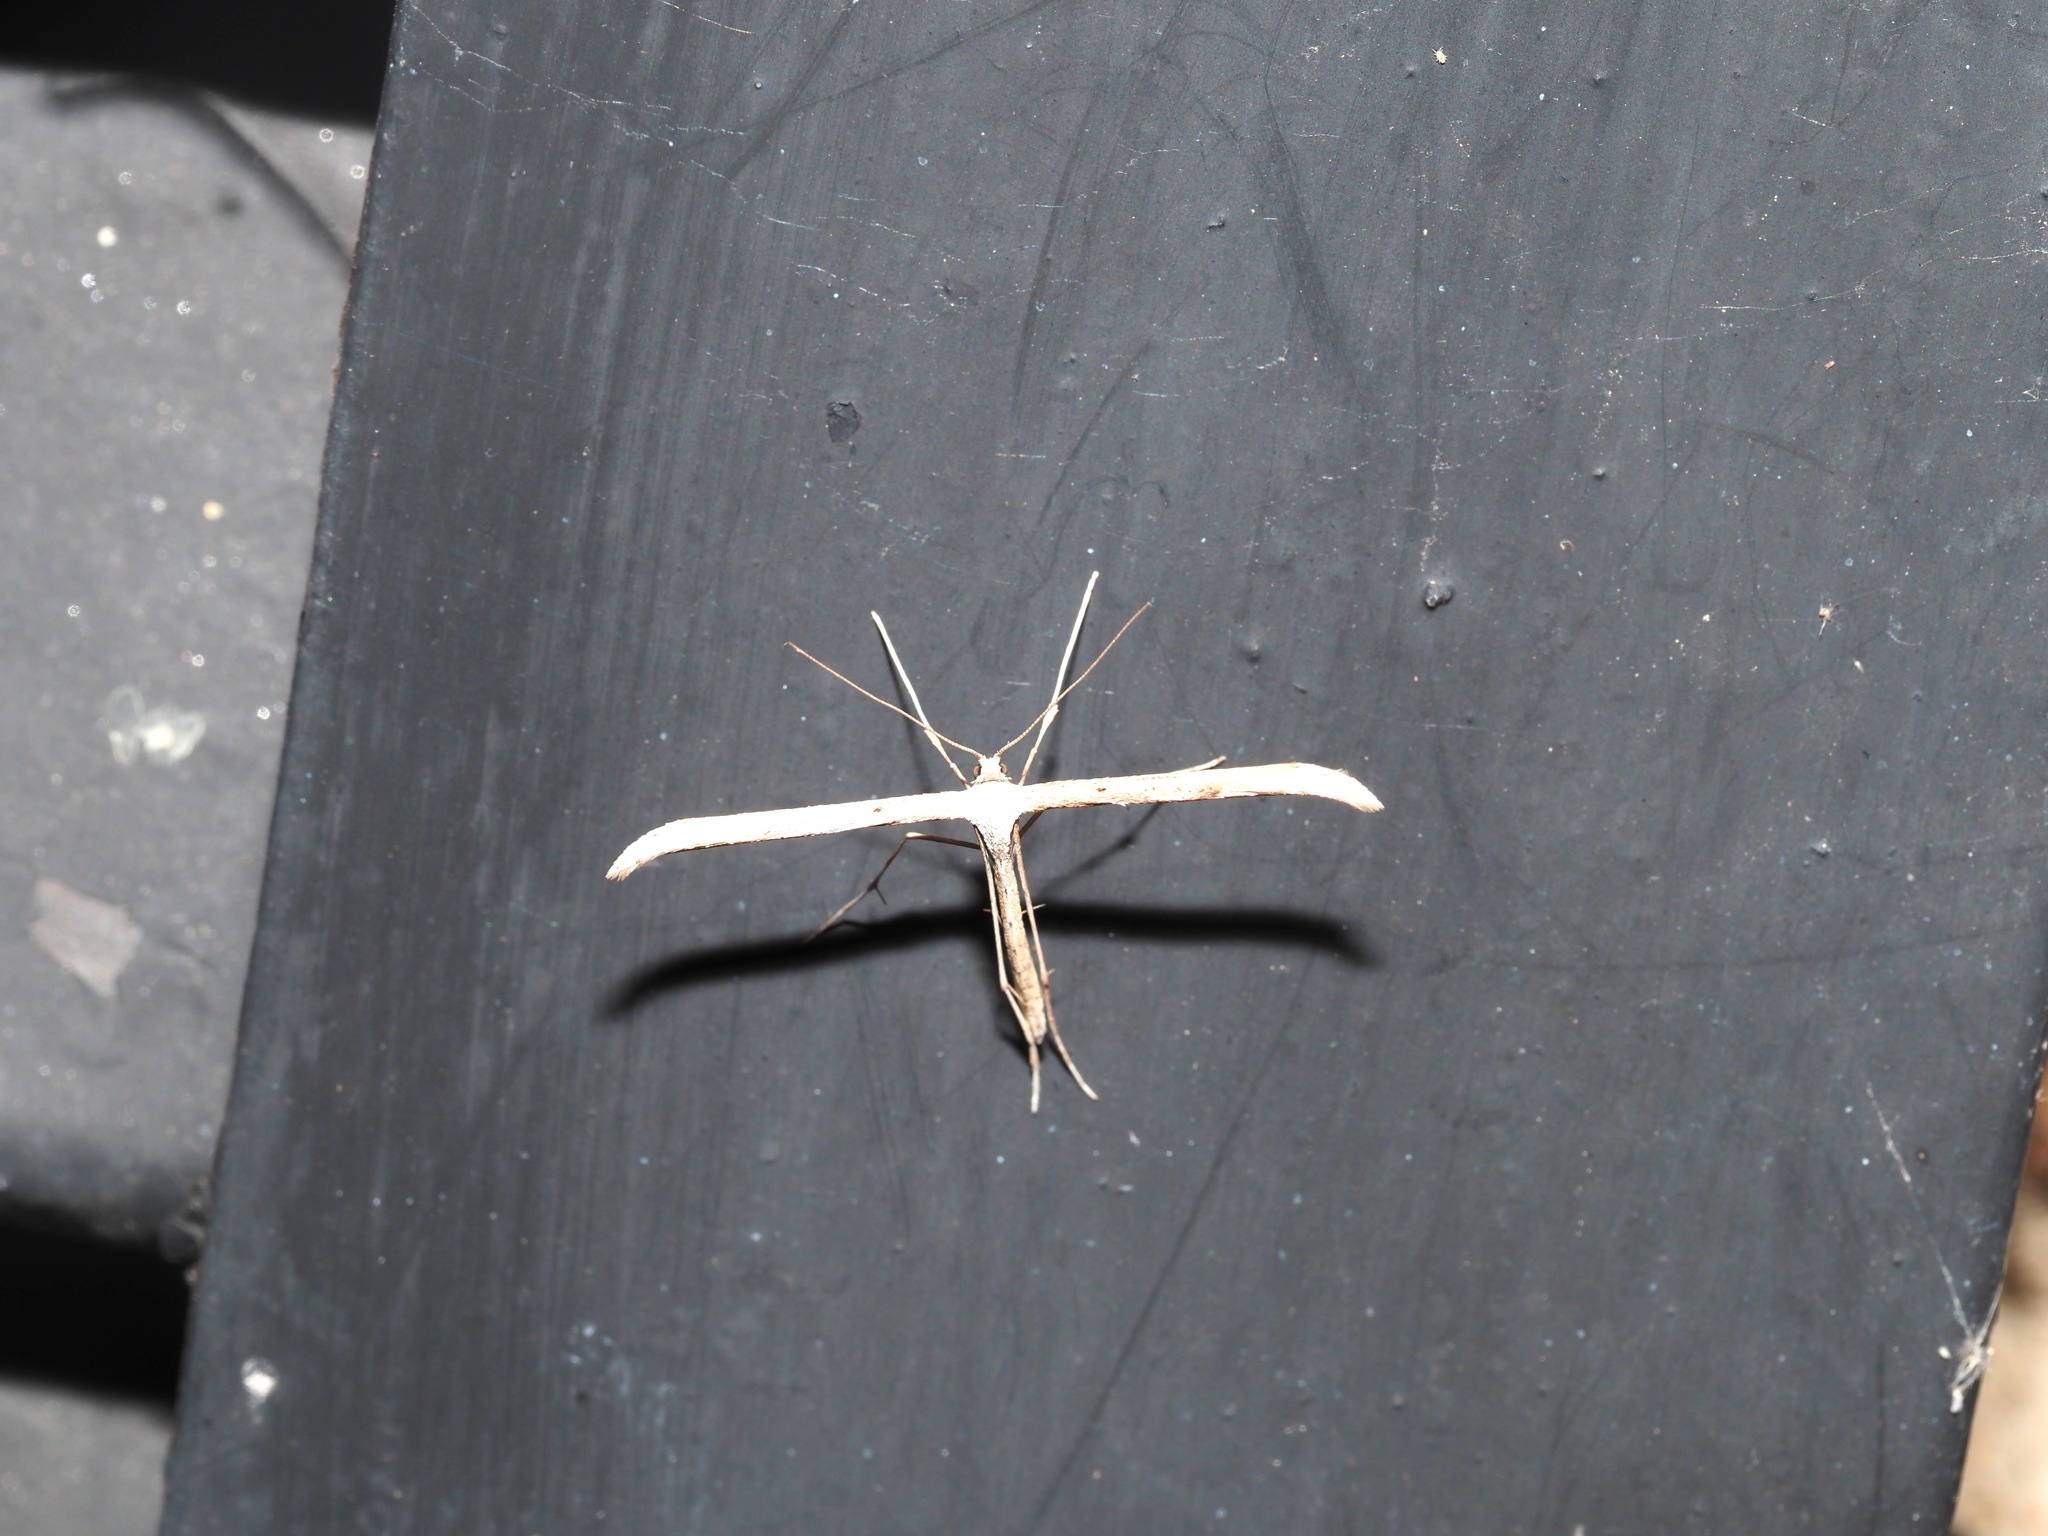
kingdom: Animalia
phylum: Arthropoda
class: Insecta
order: Lepidoptera
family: Pterophoridae
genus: Emmelina
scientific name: Emmelina monodactyla
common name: Common plume
